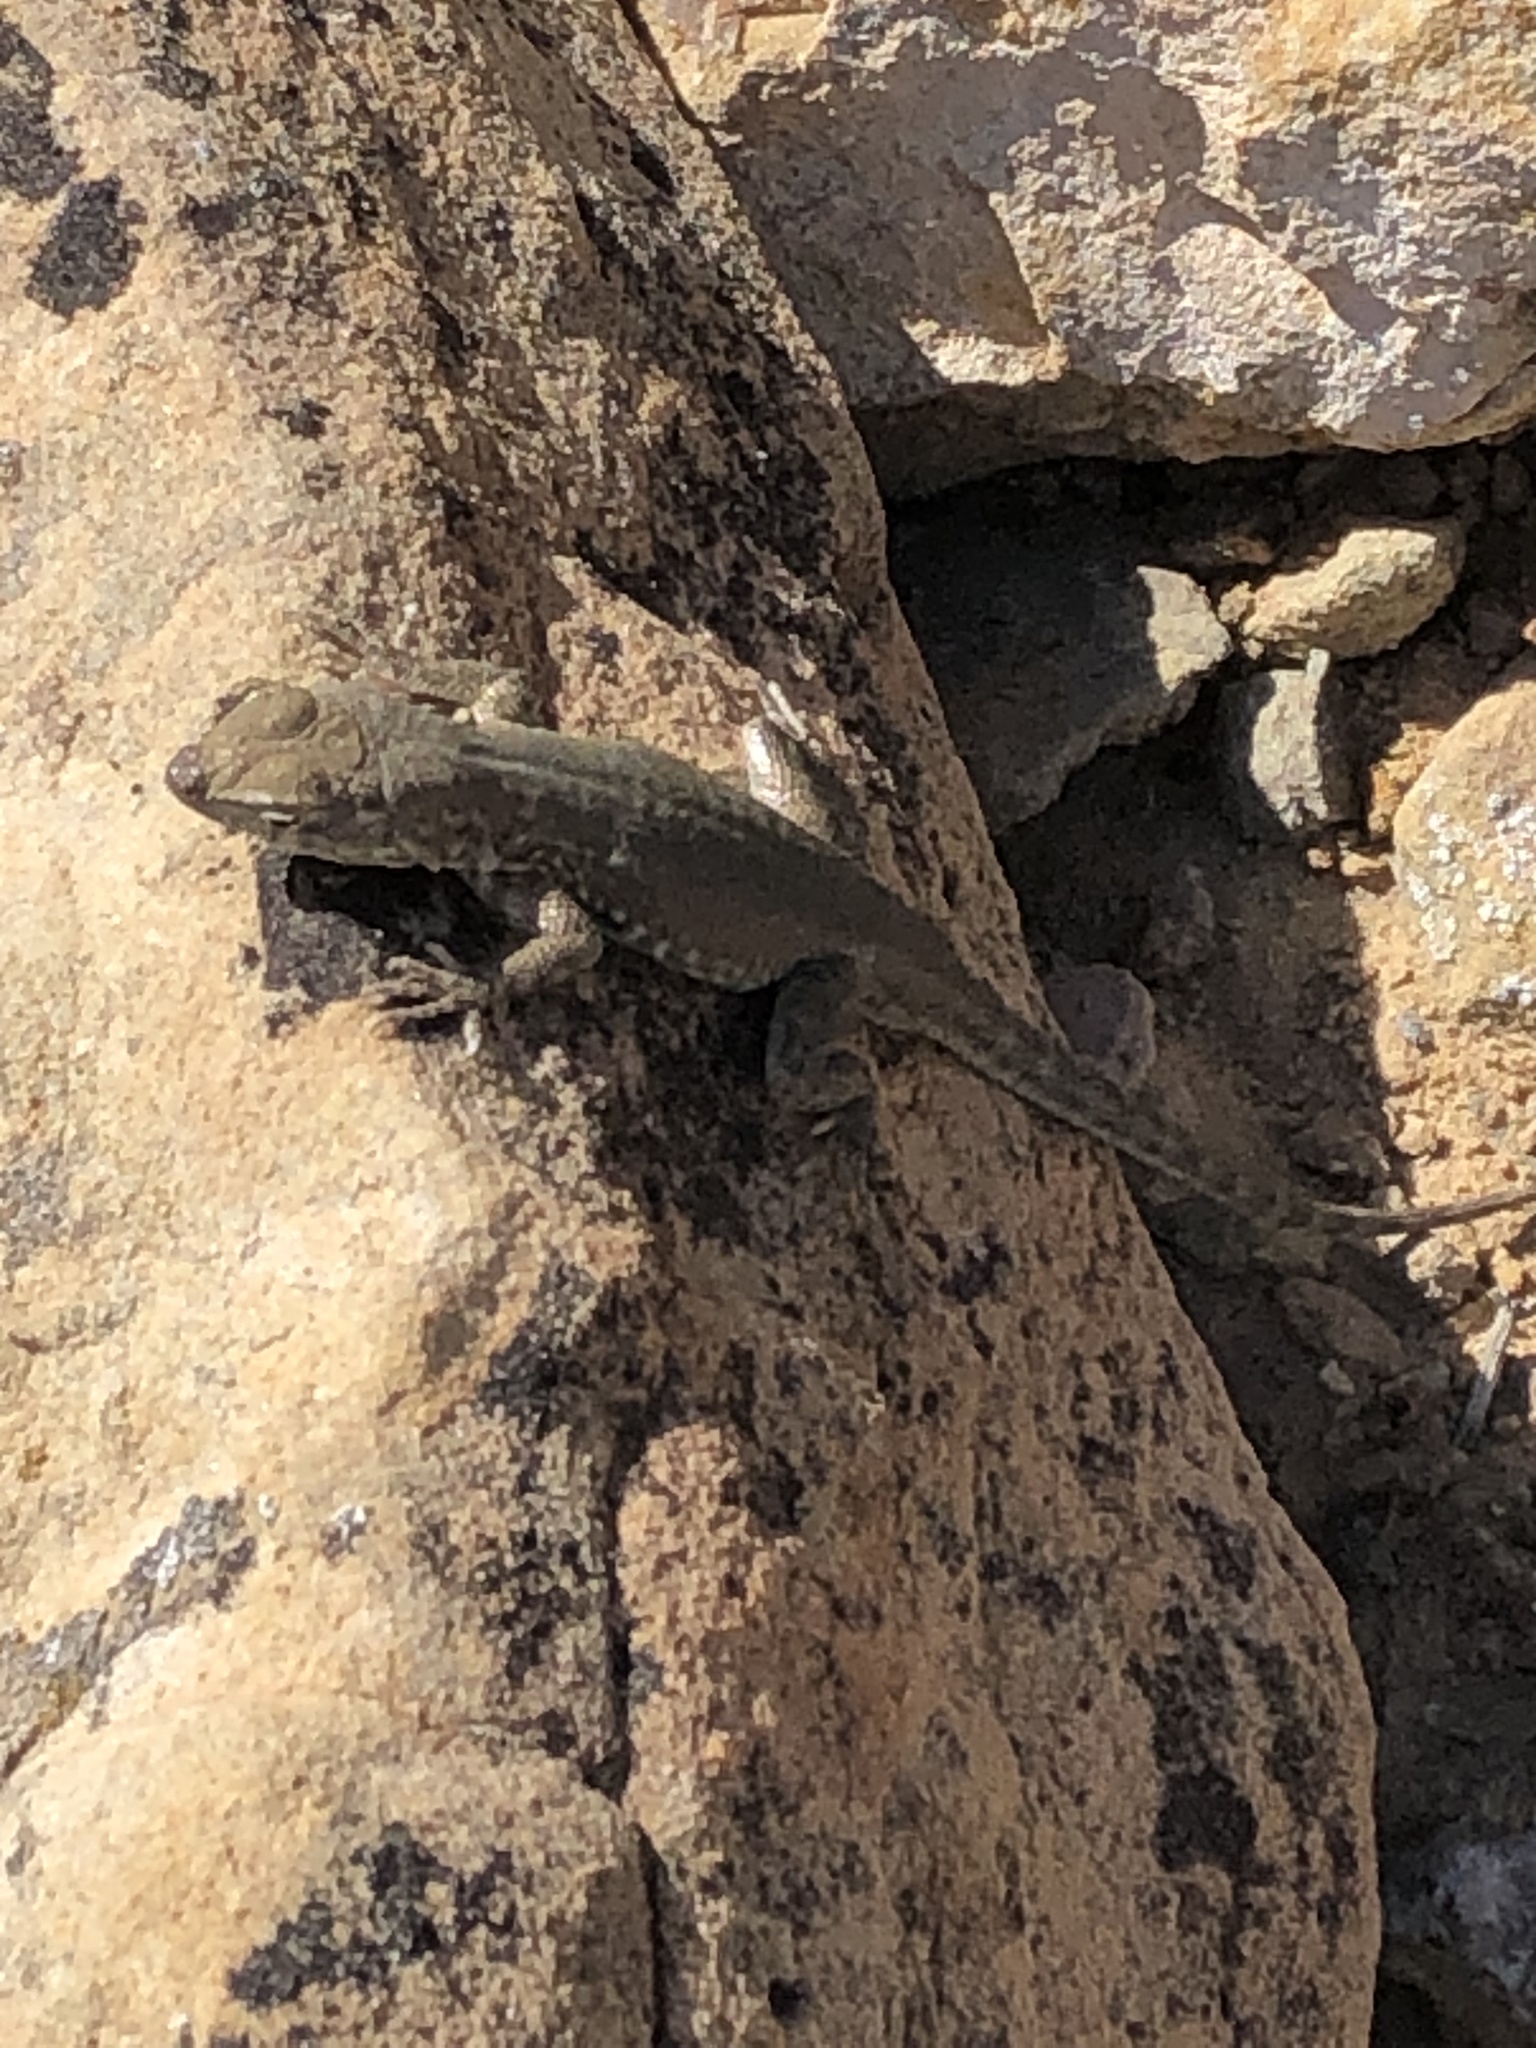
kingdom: Animalia
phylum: Chordata
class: Squamata
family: Phrynosomatidae
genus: Uta
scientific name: Uta stansburiana
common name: Side-blotched lizard
